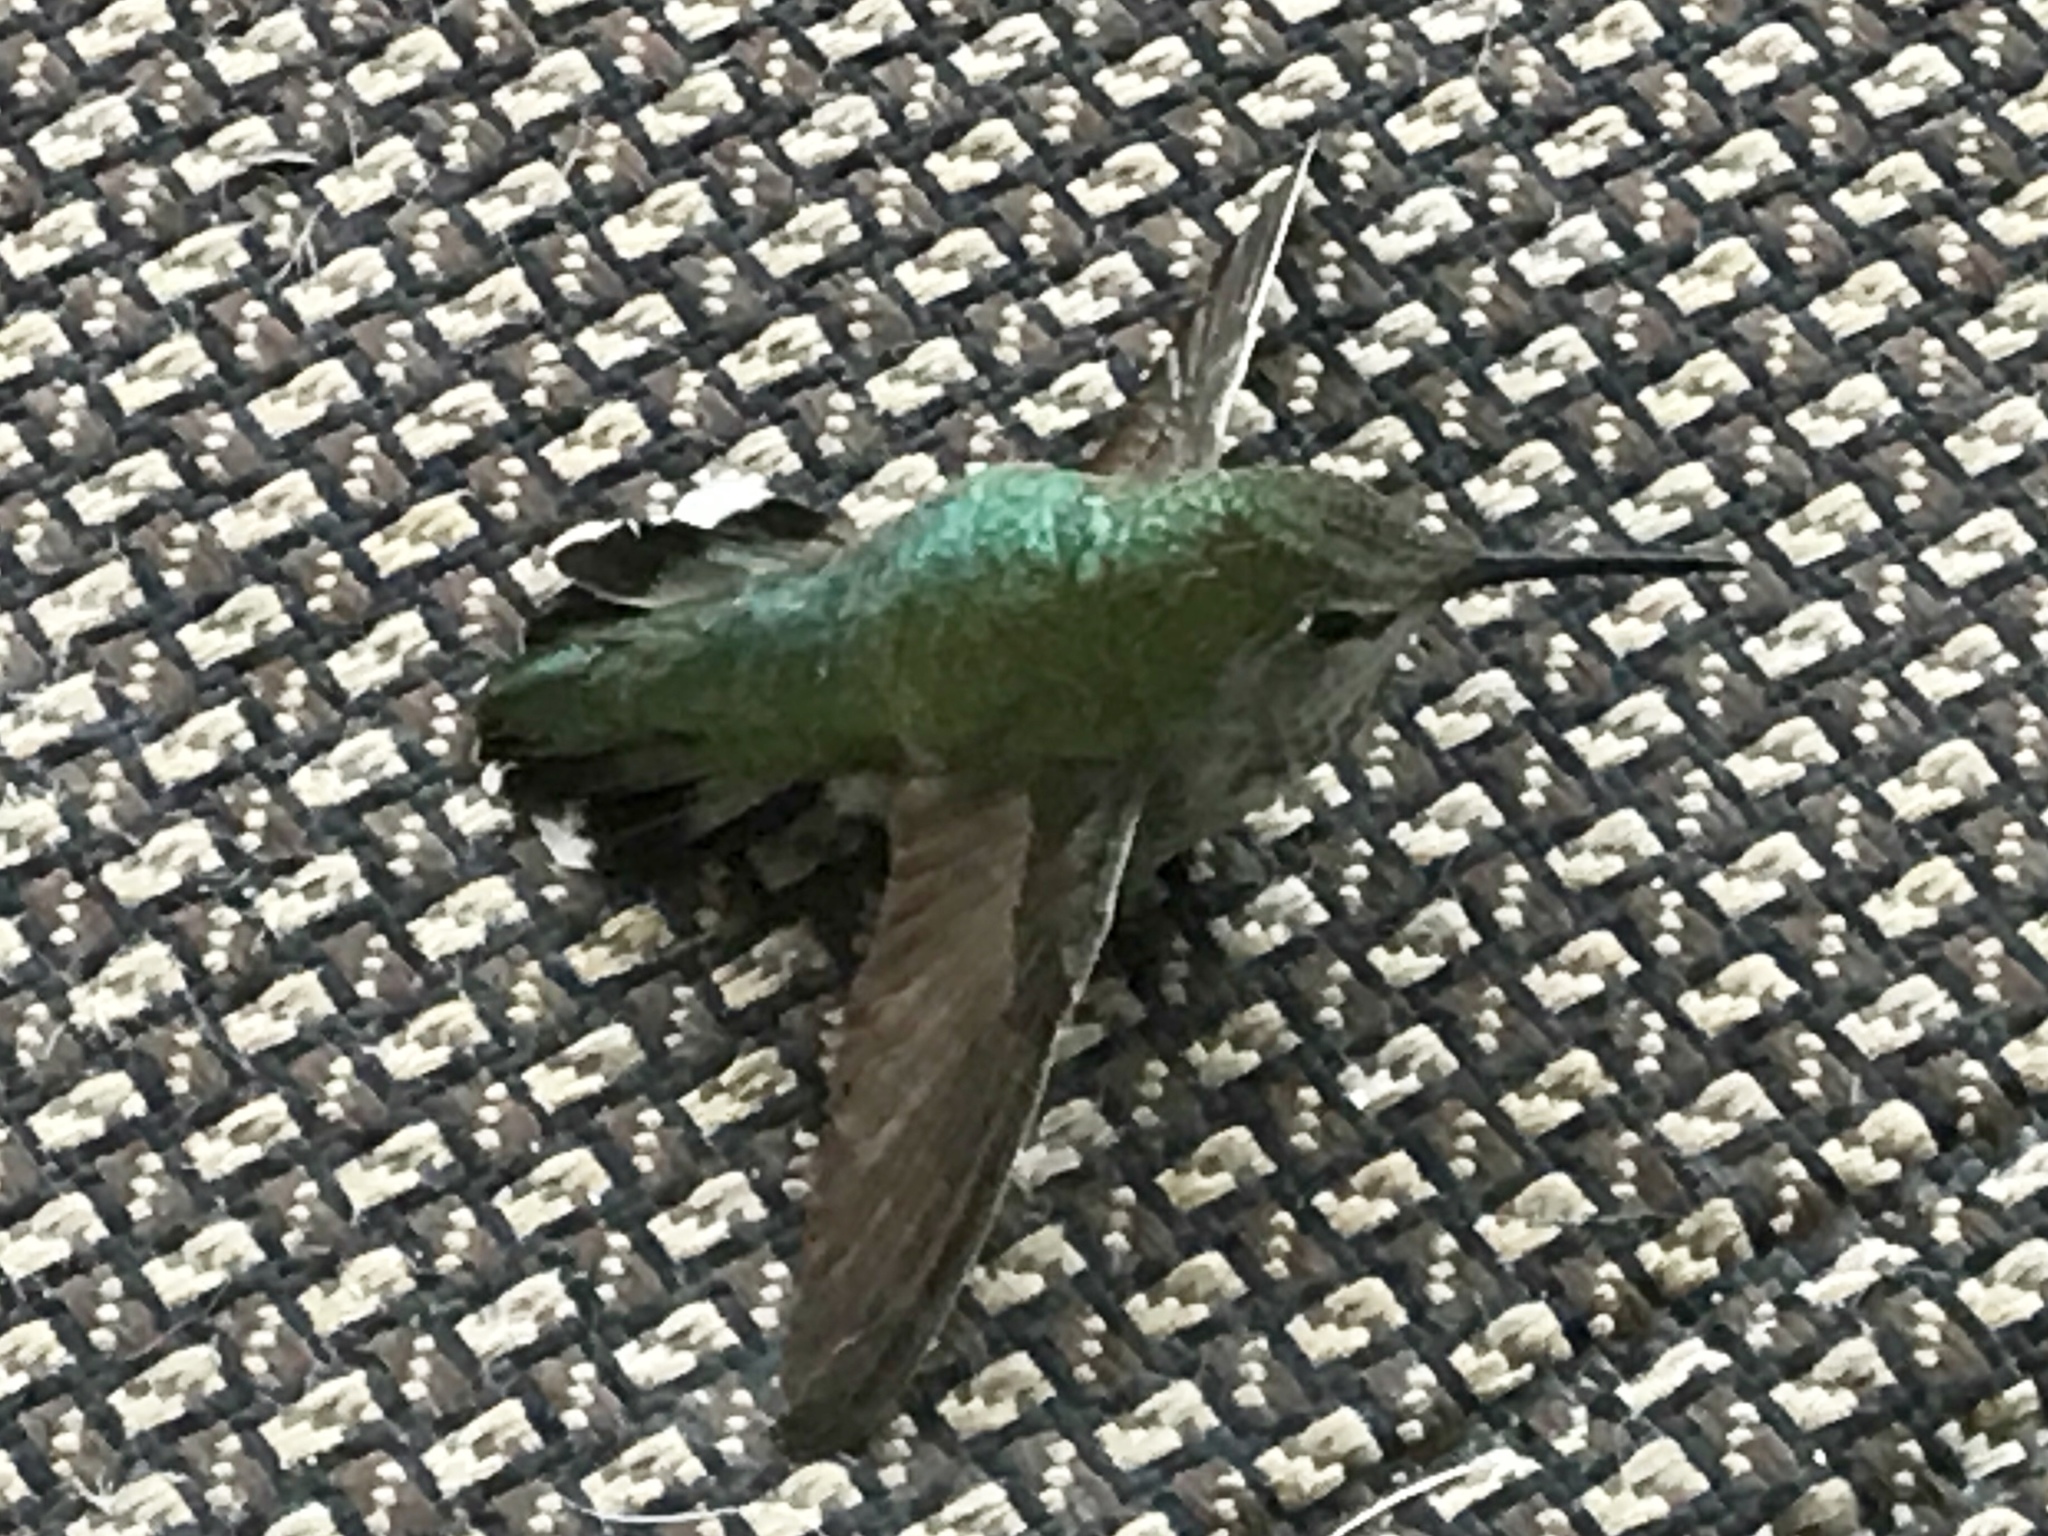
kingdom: Animalia
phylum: Chordata
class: Aves
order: Apodiformes
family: Trochilidae
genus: Calypte
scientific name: Calypte anna
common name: Anna's hummingbird
